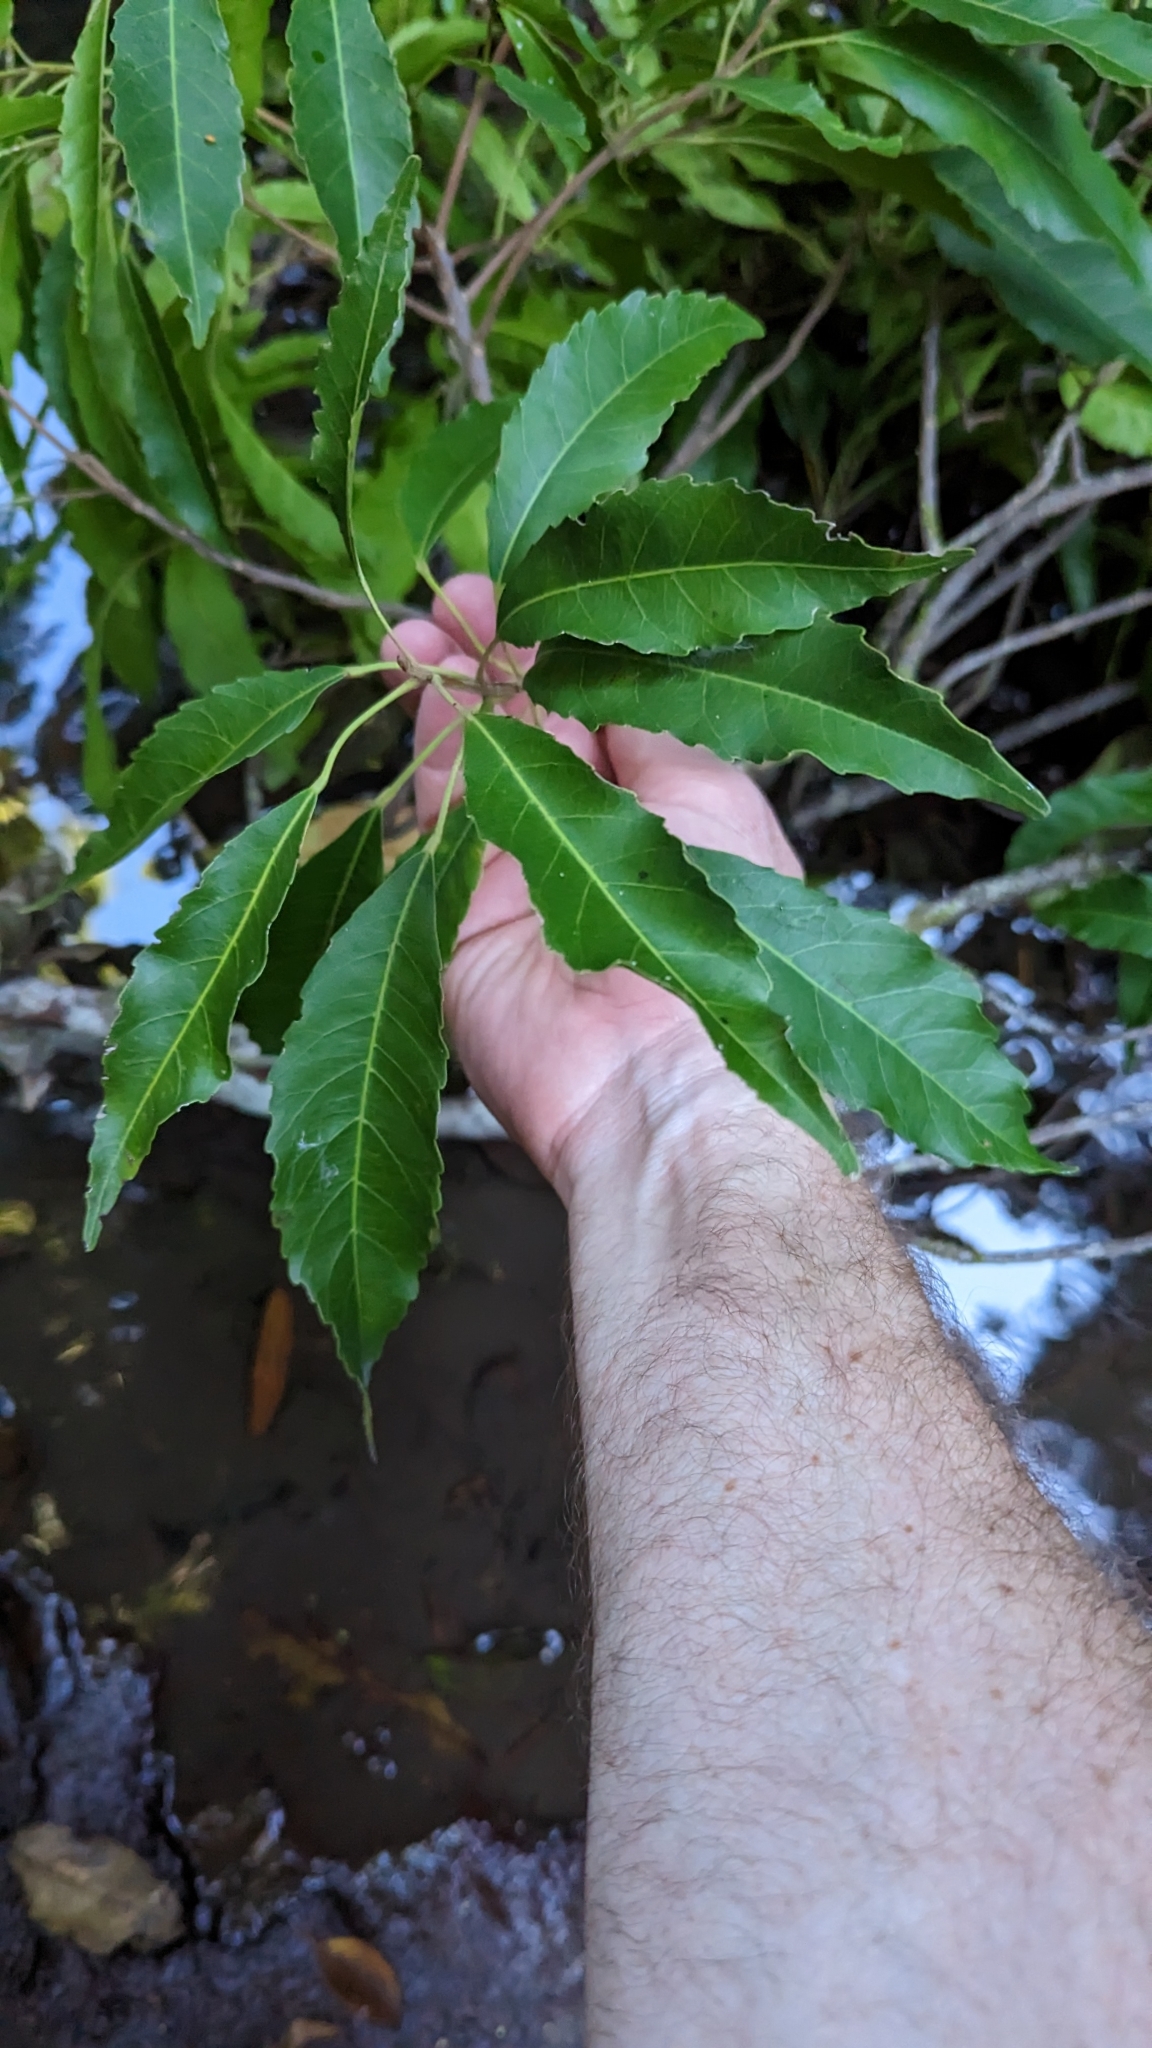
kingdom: Plantae
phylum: Tracheophyta
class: Magnoliopsida
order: Oxalidales
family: Elaeocarpaceae
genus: Sloanea
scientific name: Sloanea woollsii
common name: Yellow carabeen
